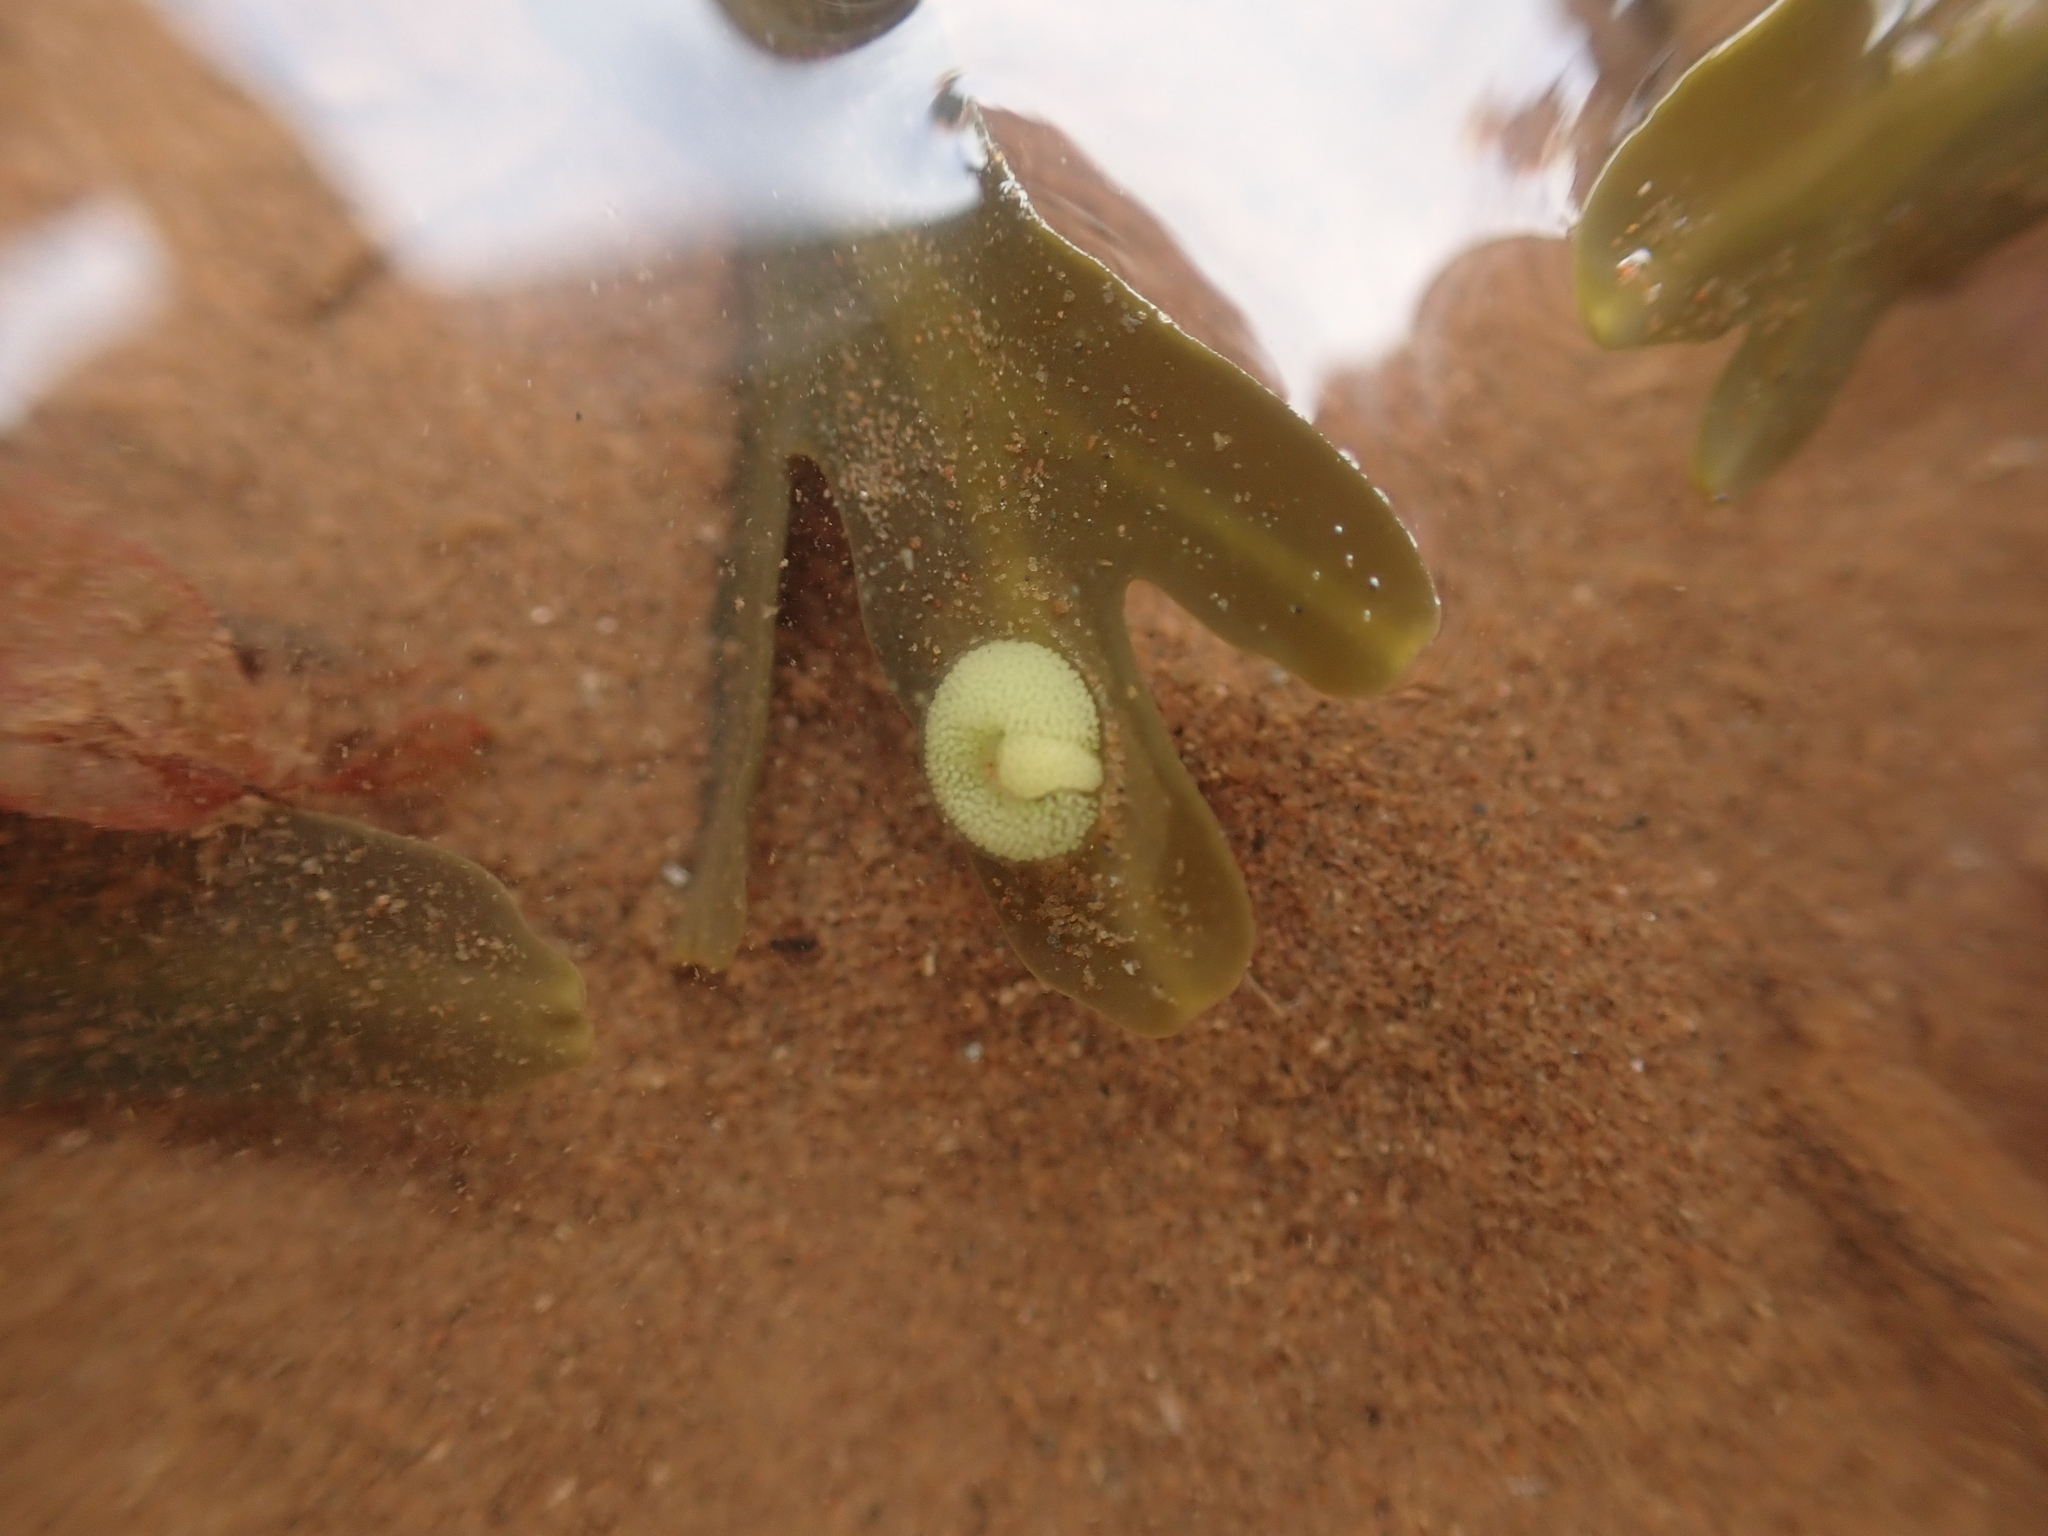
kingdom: Animalia
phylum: Mollusca
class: Gastropoda
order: Littorinimorpha
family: Littorinidae
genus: Lacuna
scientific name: Lacuna vincta
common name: Banded chink shell
